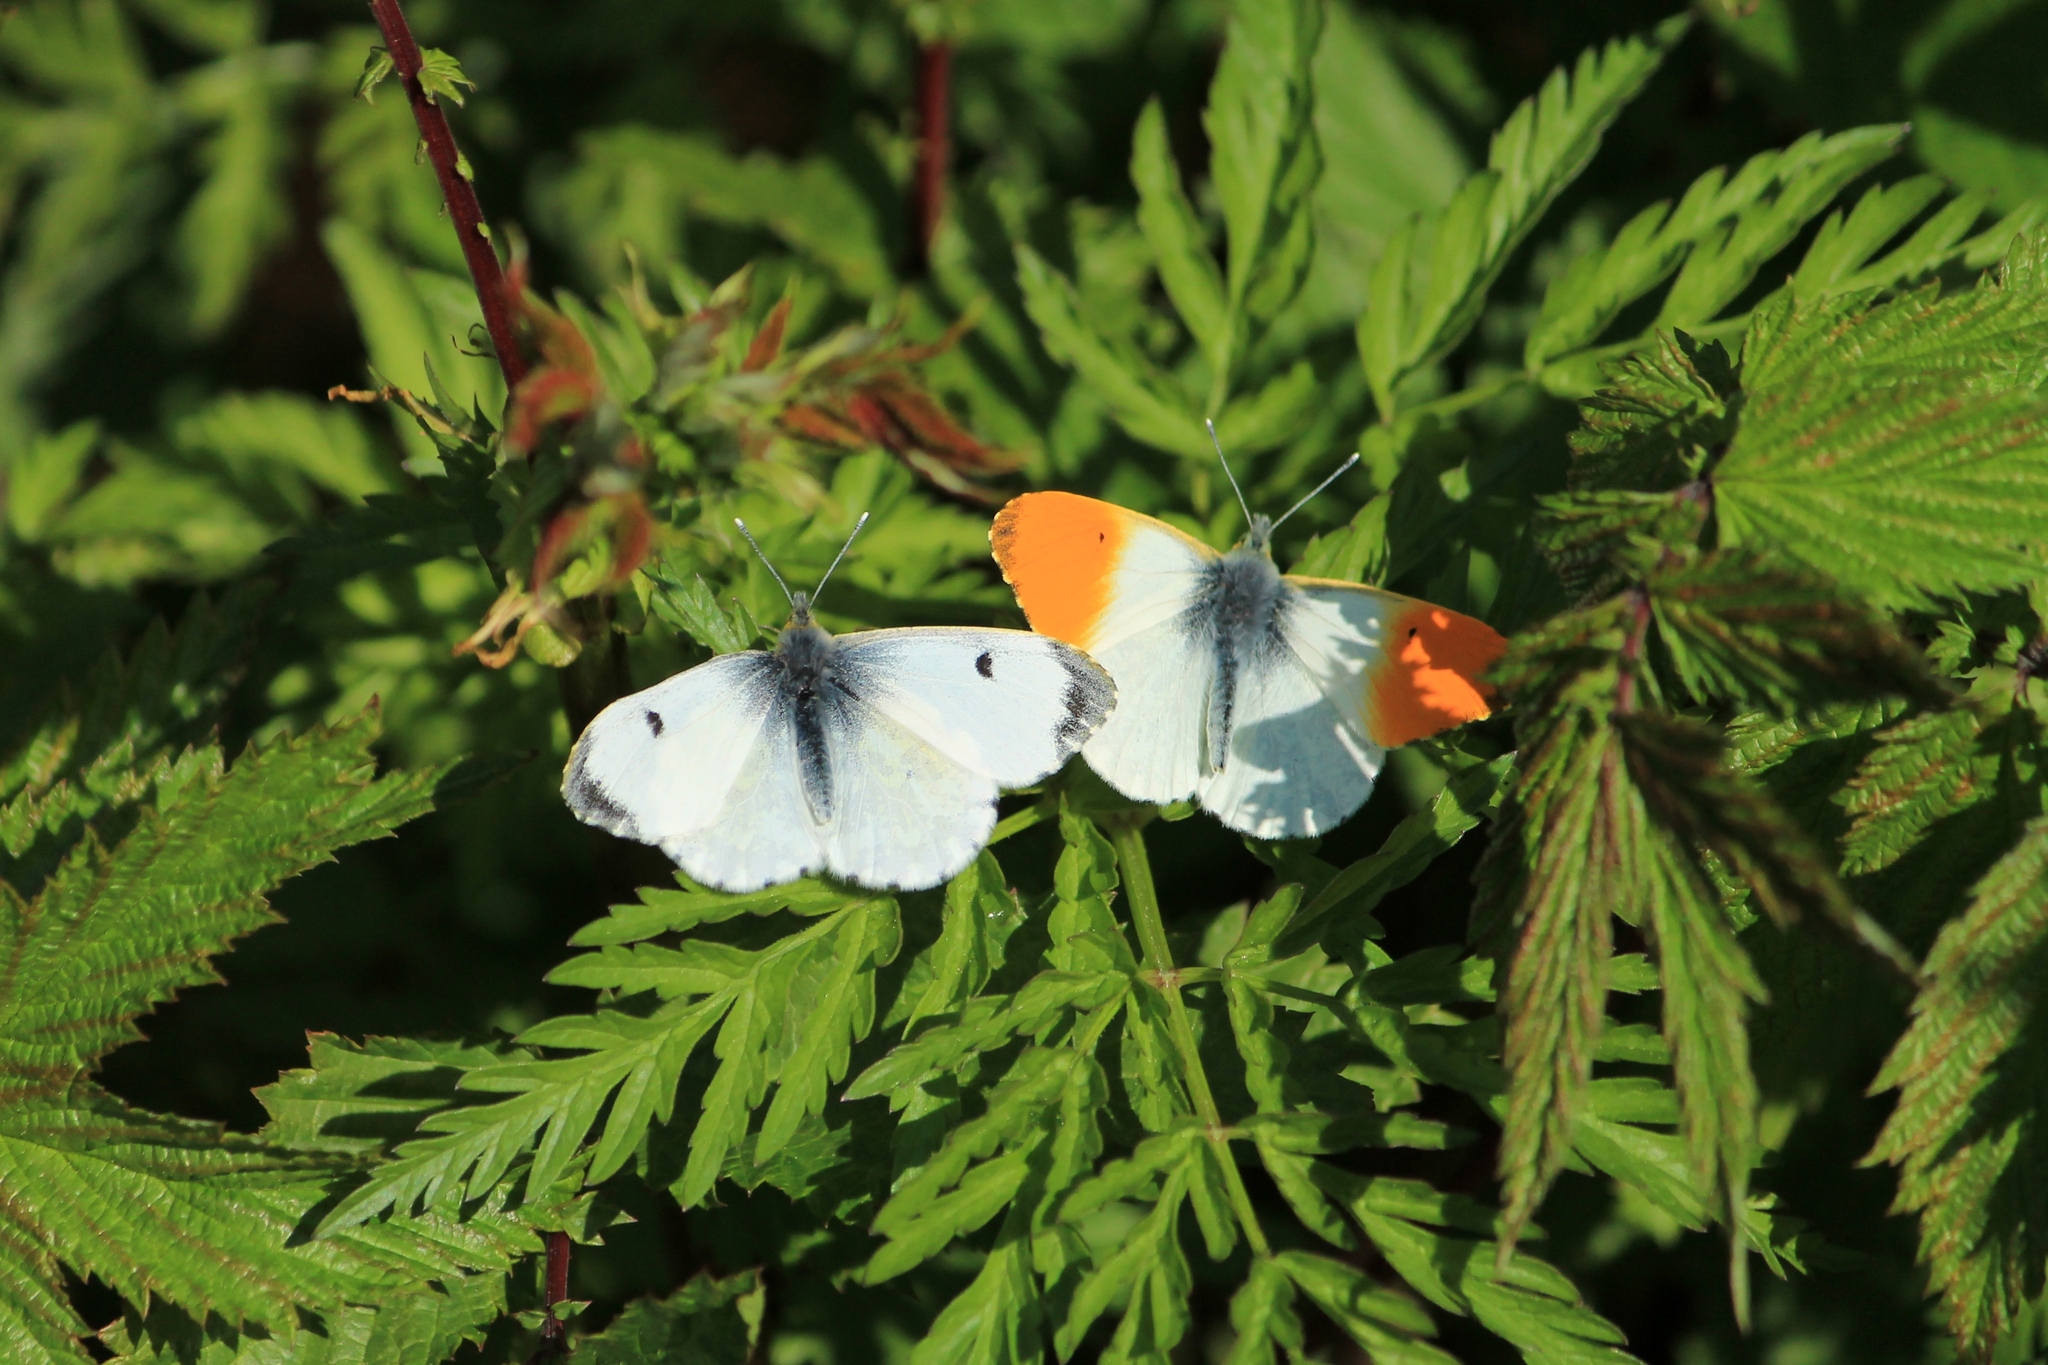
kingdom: Animalia
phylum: Arthropoda
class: Insecta
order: Lepidoptera
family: Pieridae
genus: Anthocharis
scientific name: Anthocharis cardamines
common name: Orange-tip
